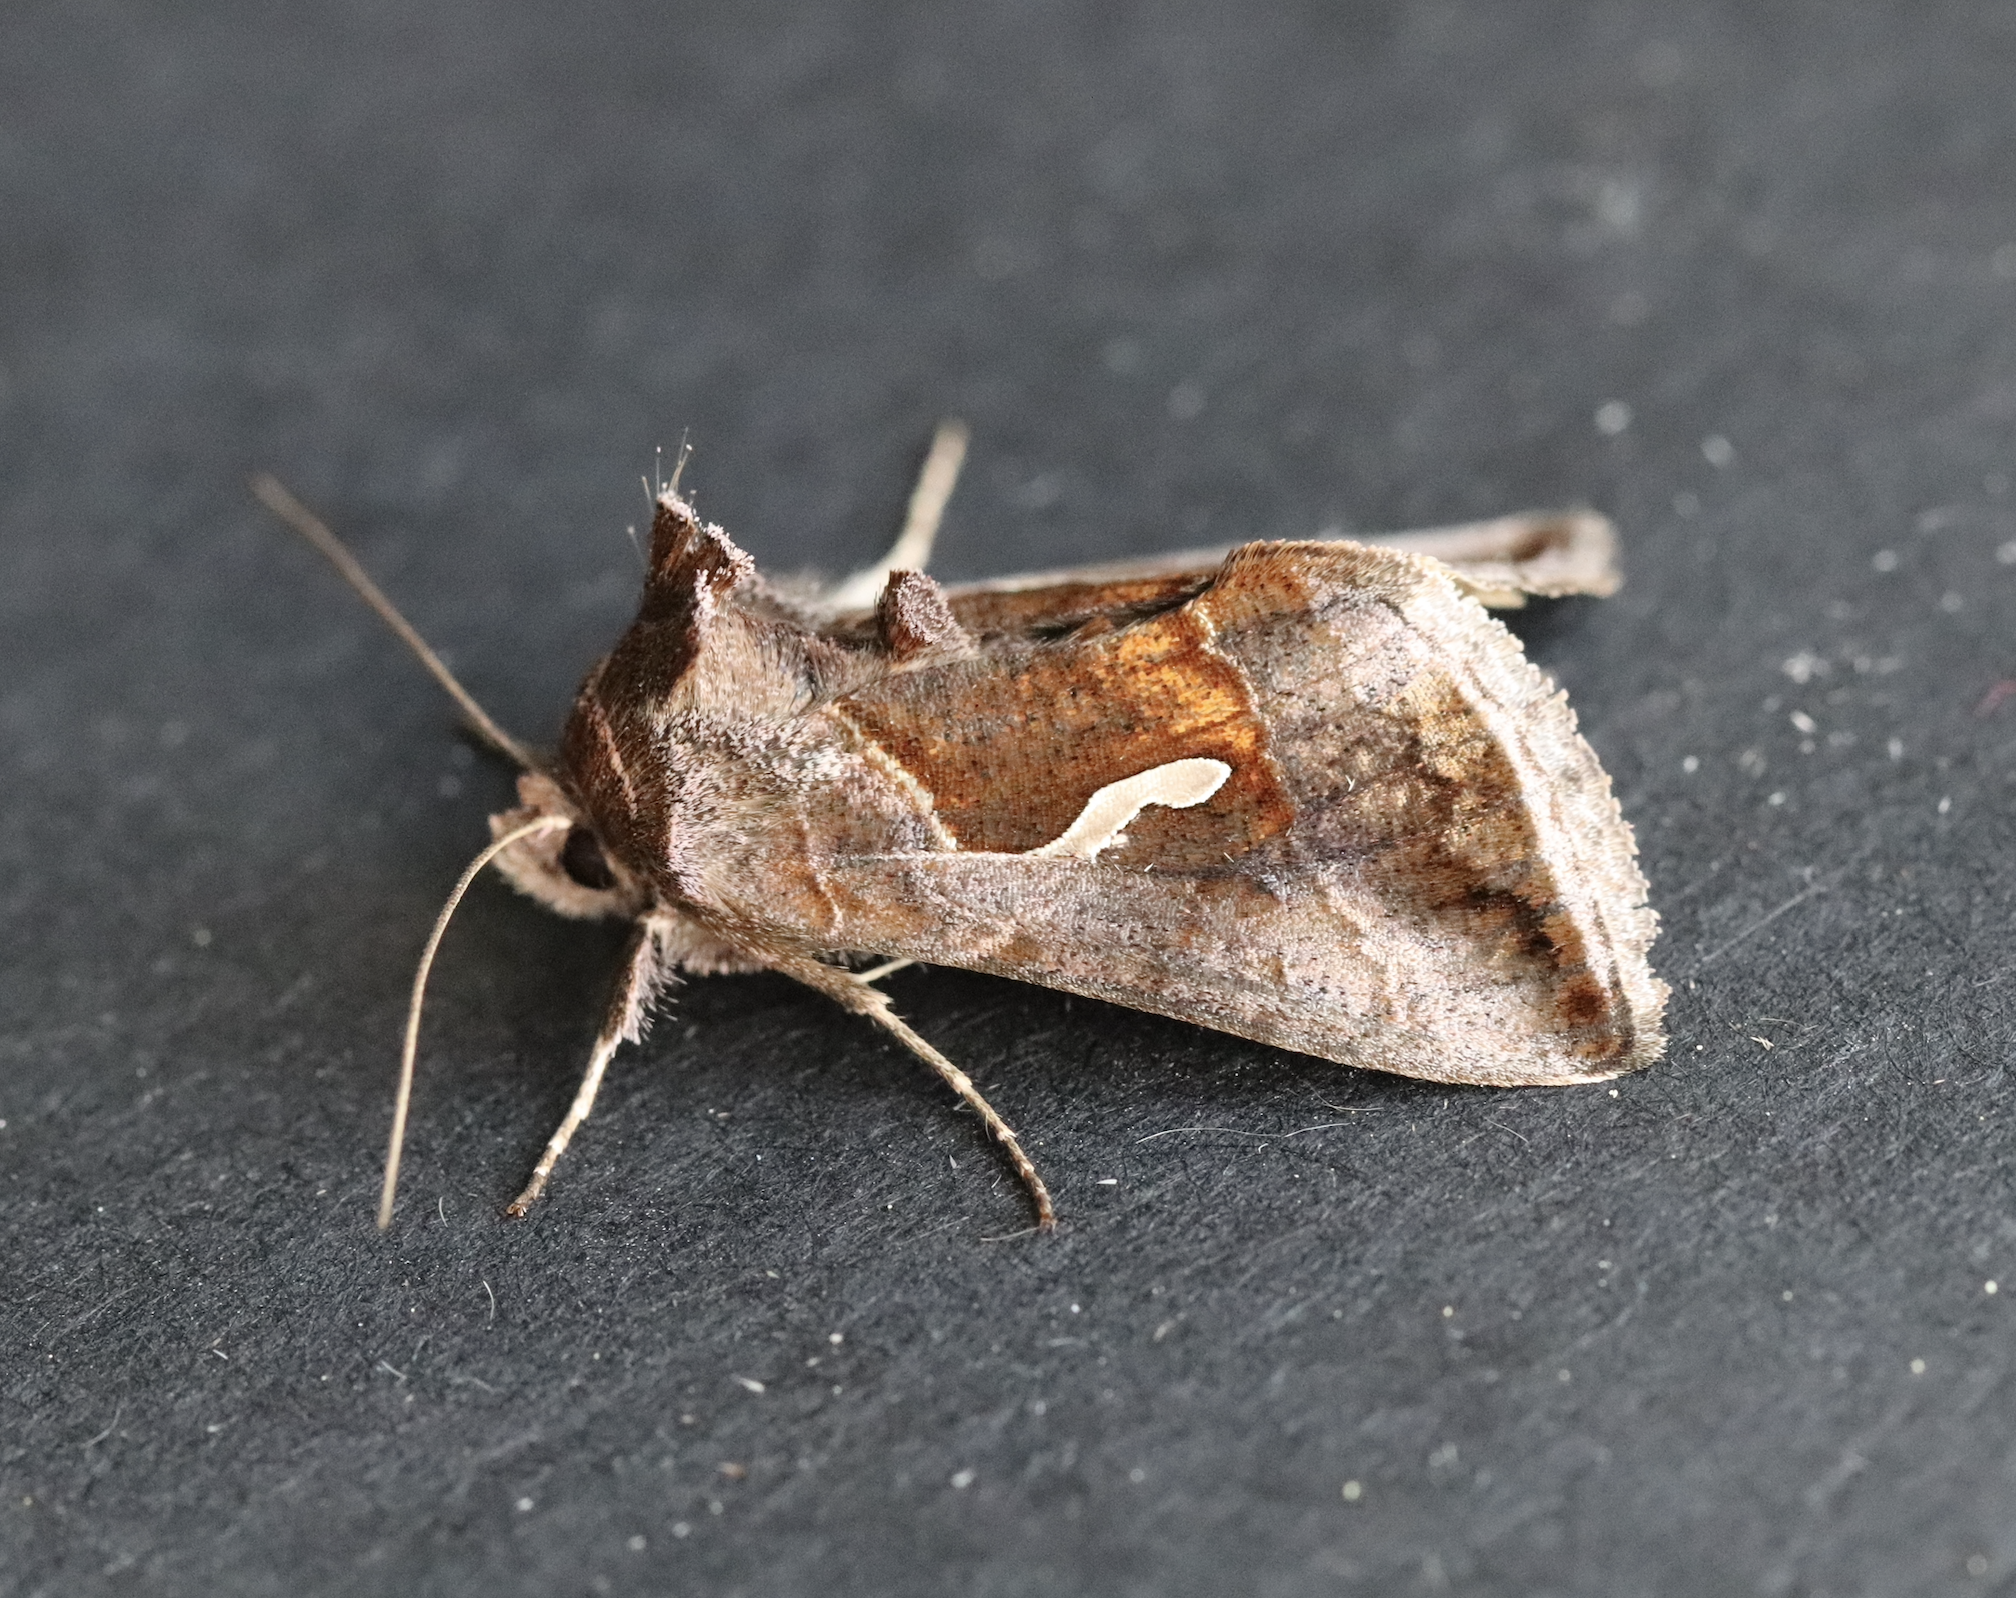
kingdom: Animalia
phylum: Arthropoda
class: Insecta
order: Lepidoptera
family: Noctuidae
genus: Macdunnoughia
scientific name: Macdunnoughia confusa
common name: Dewick's plusia
